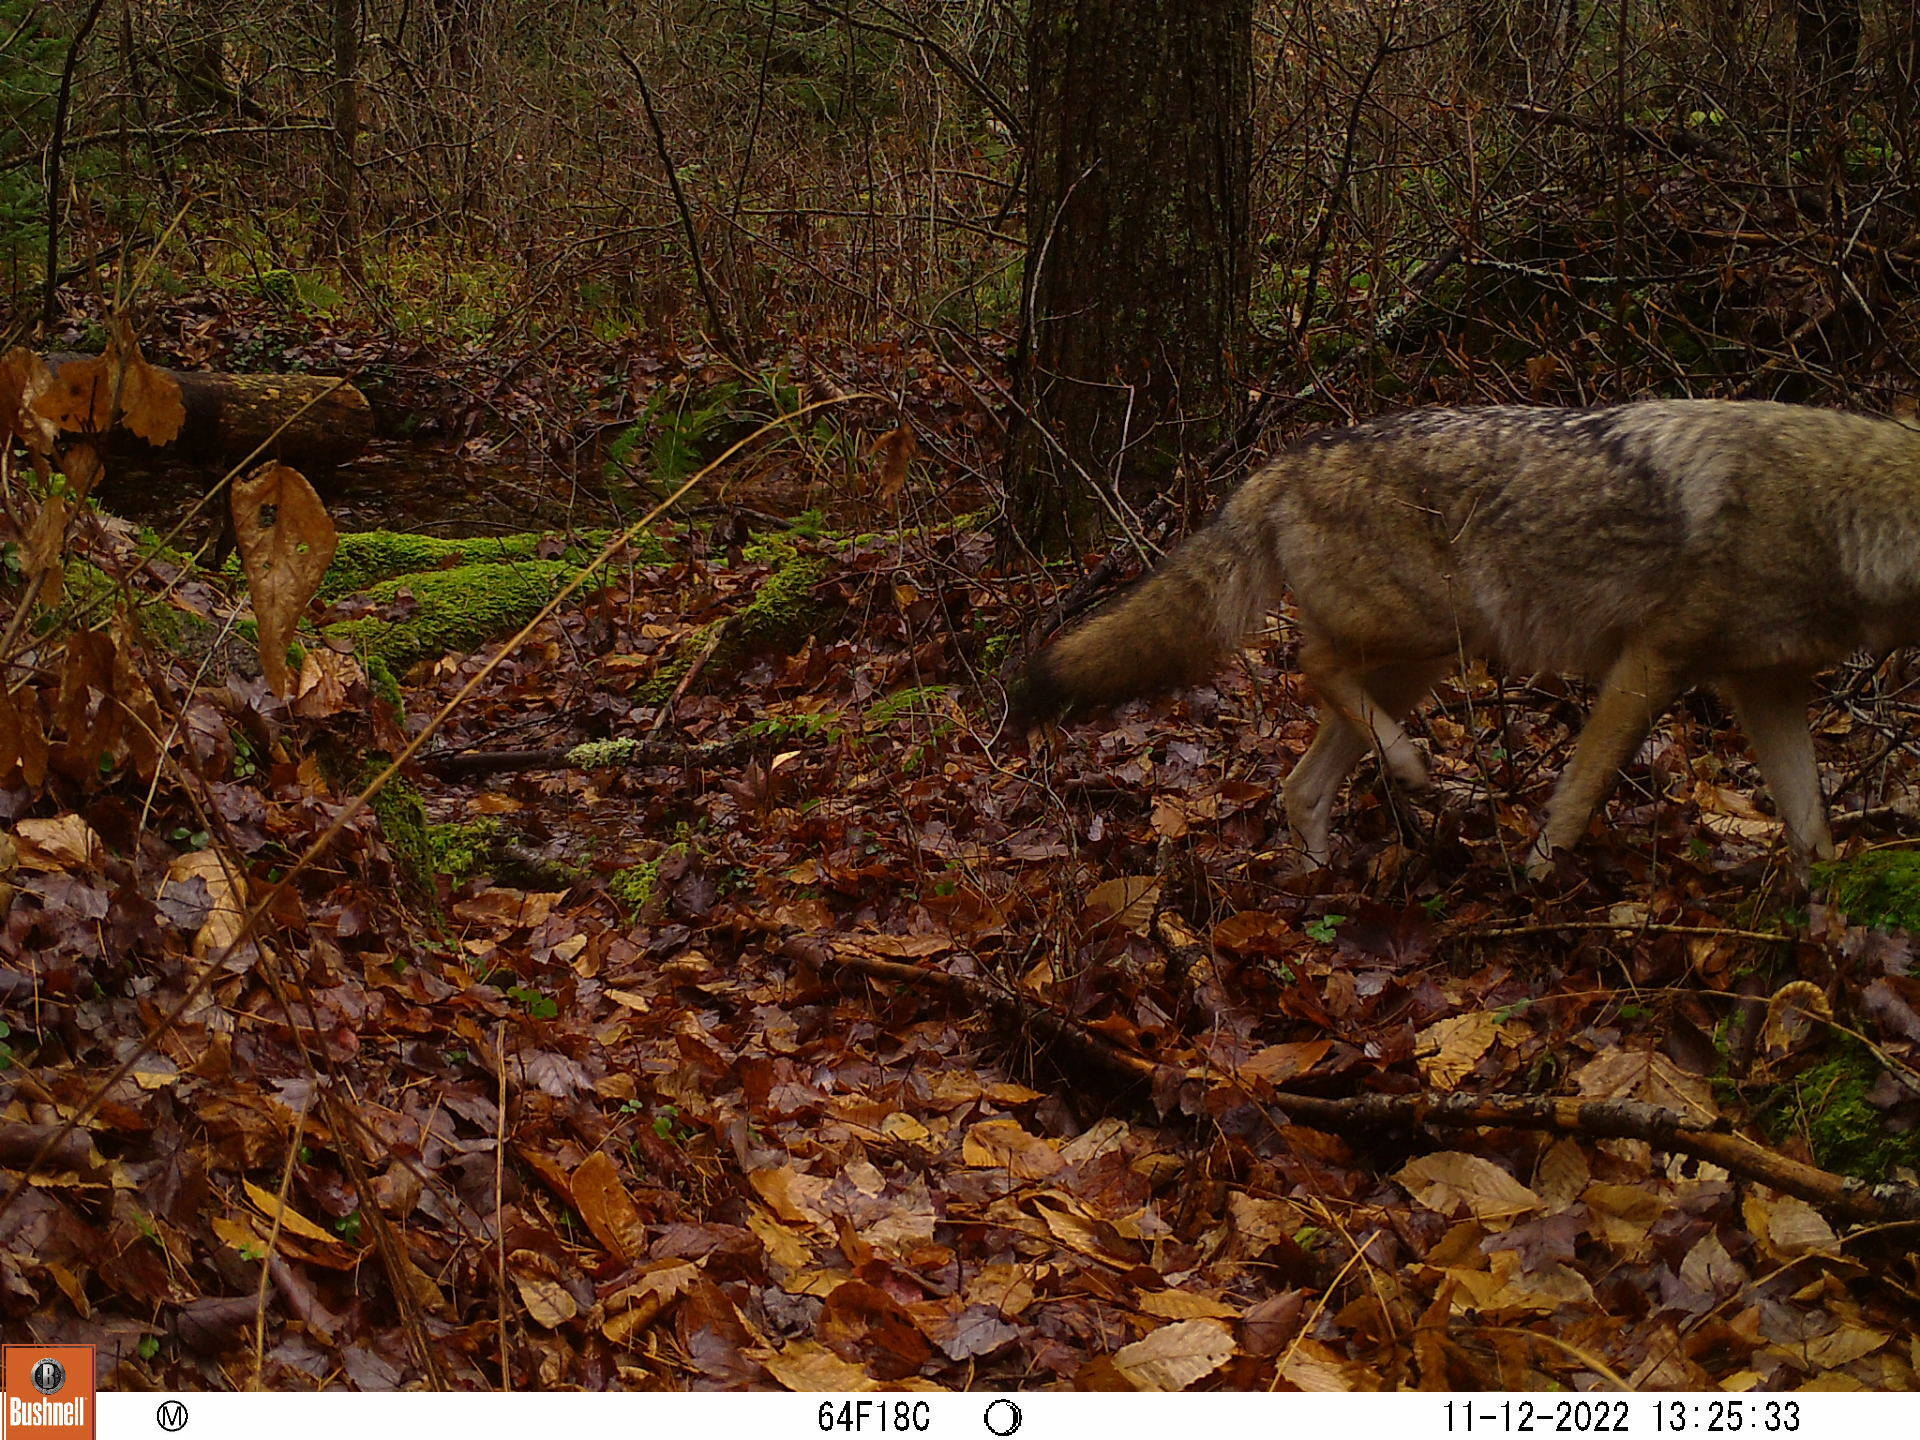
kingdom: Animalia
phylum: Chordata
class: Mammalia
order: Carnivora
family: Canidae
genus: Canis
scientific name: Canis latrans
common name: Coyote
